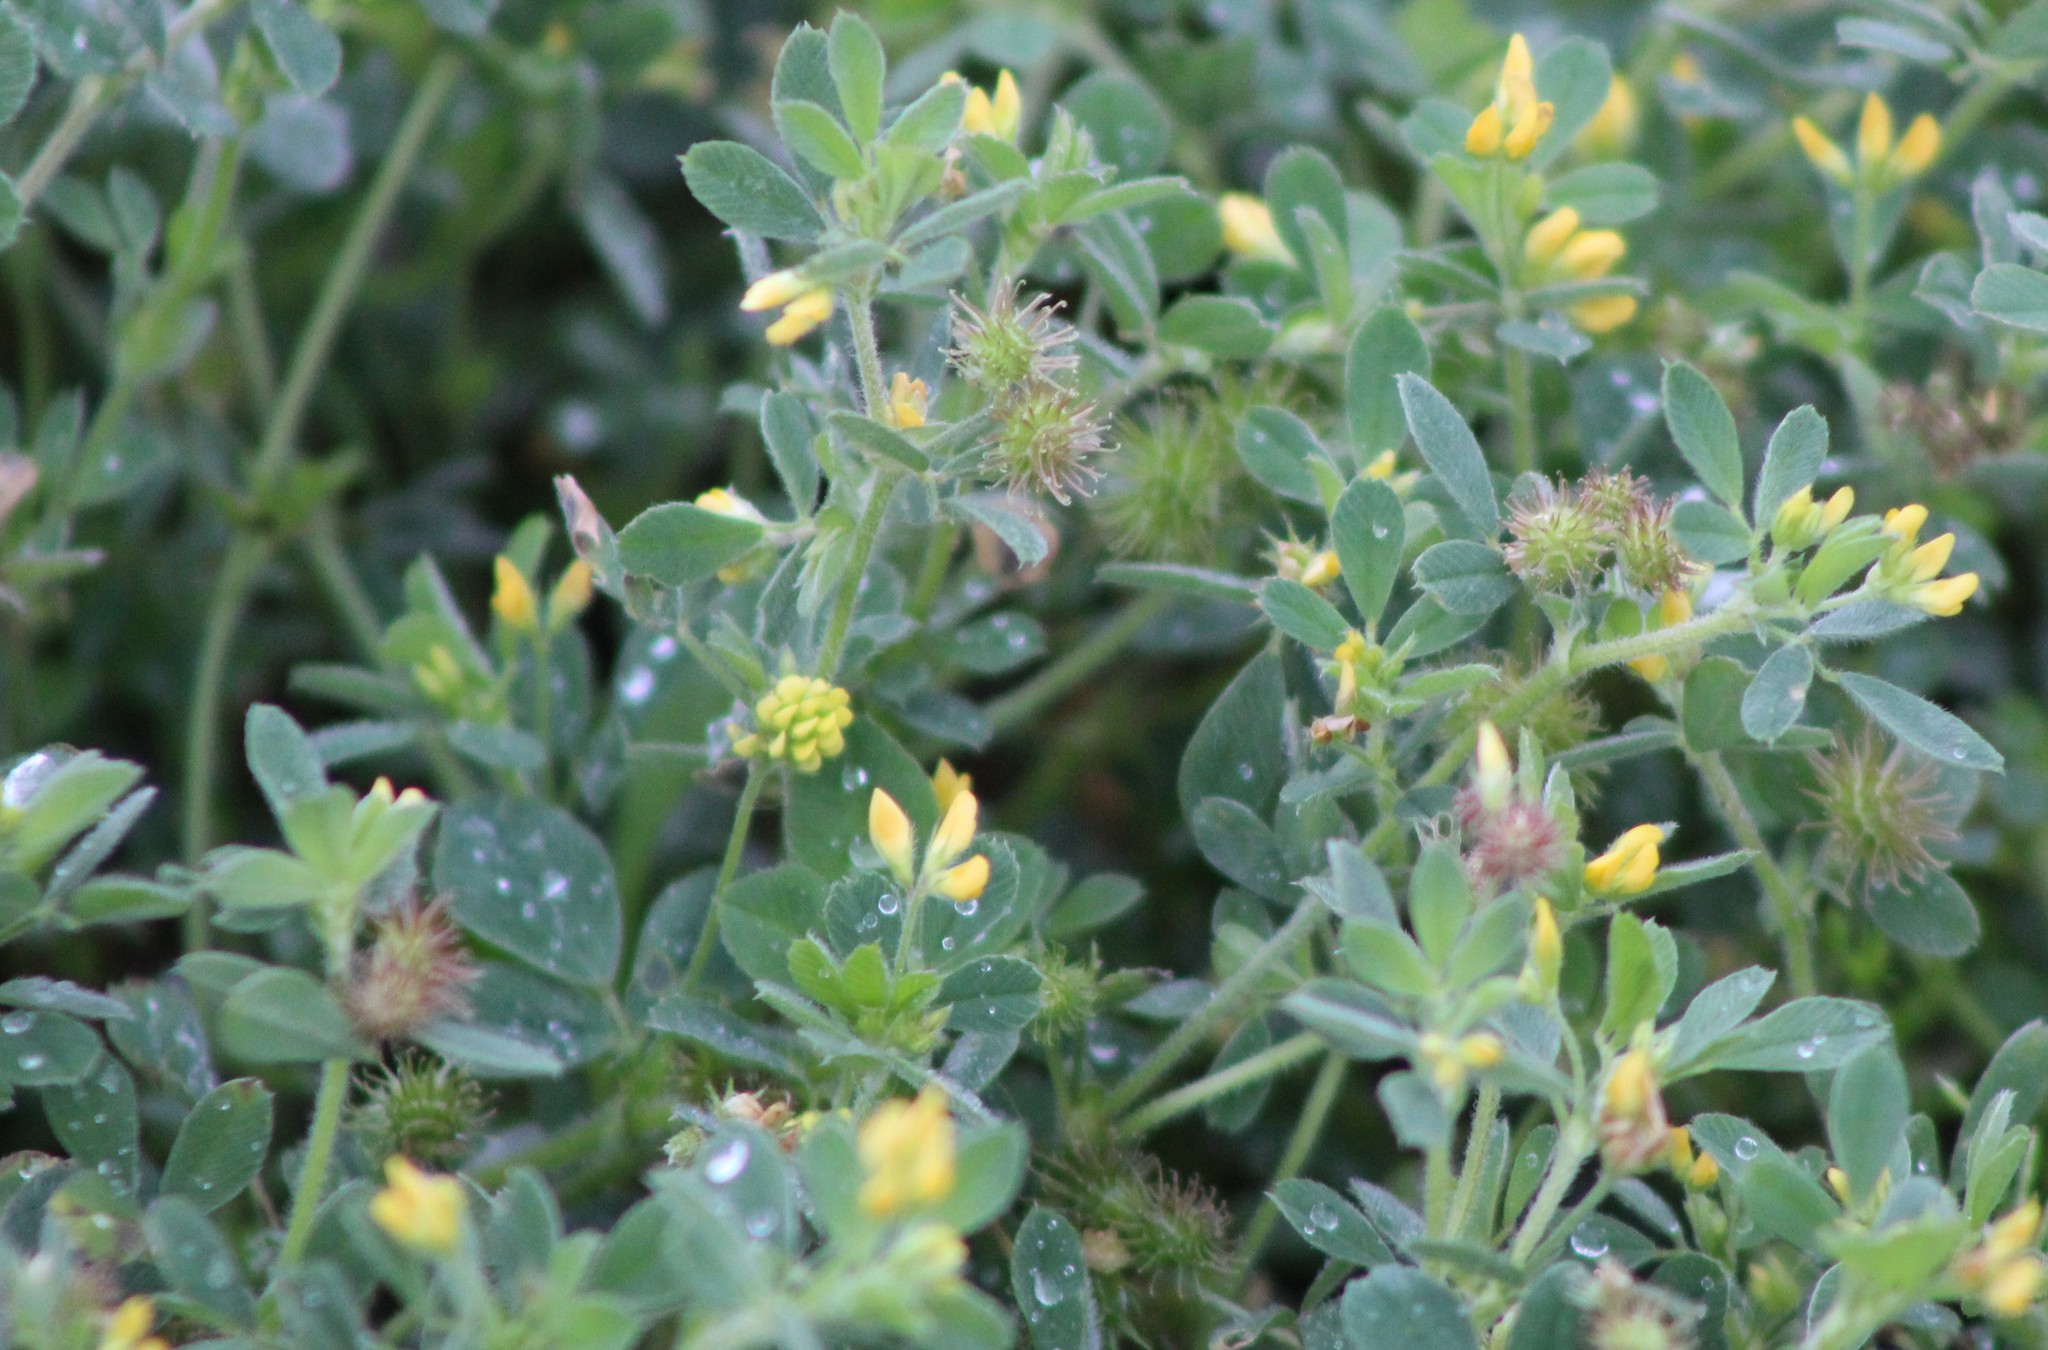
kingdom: Plantae
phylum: Tracheophyta
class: Magnoliopsida
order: Fabales
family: Fabaceae
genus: Medicago
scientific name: Medicago minima
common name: Little bur-clover
